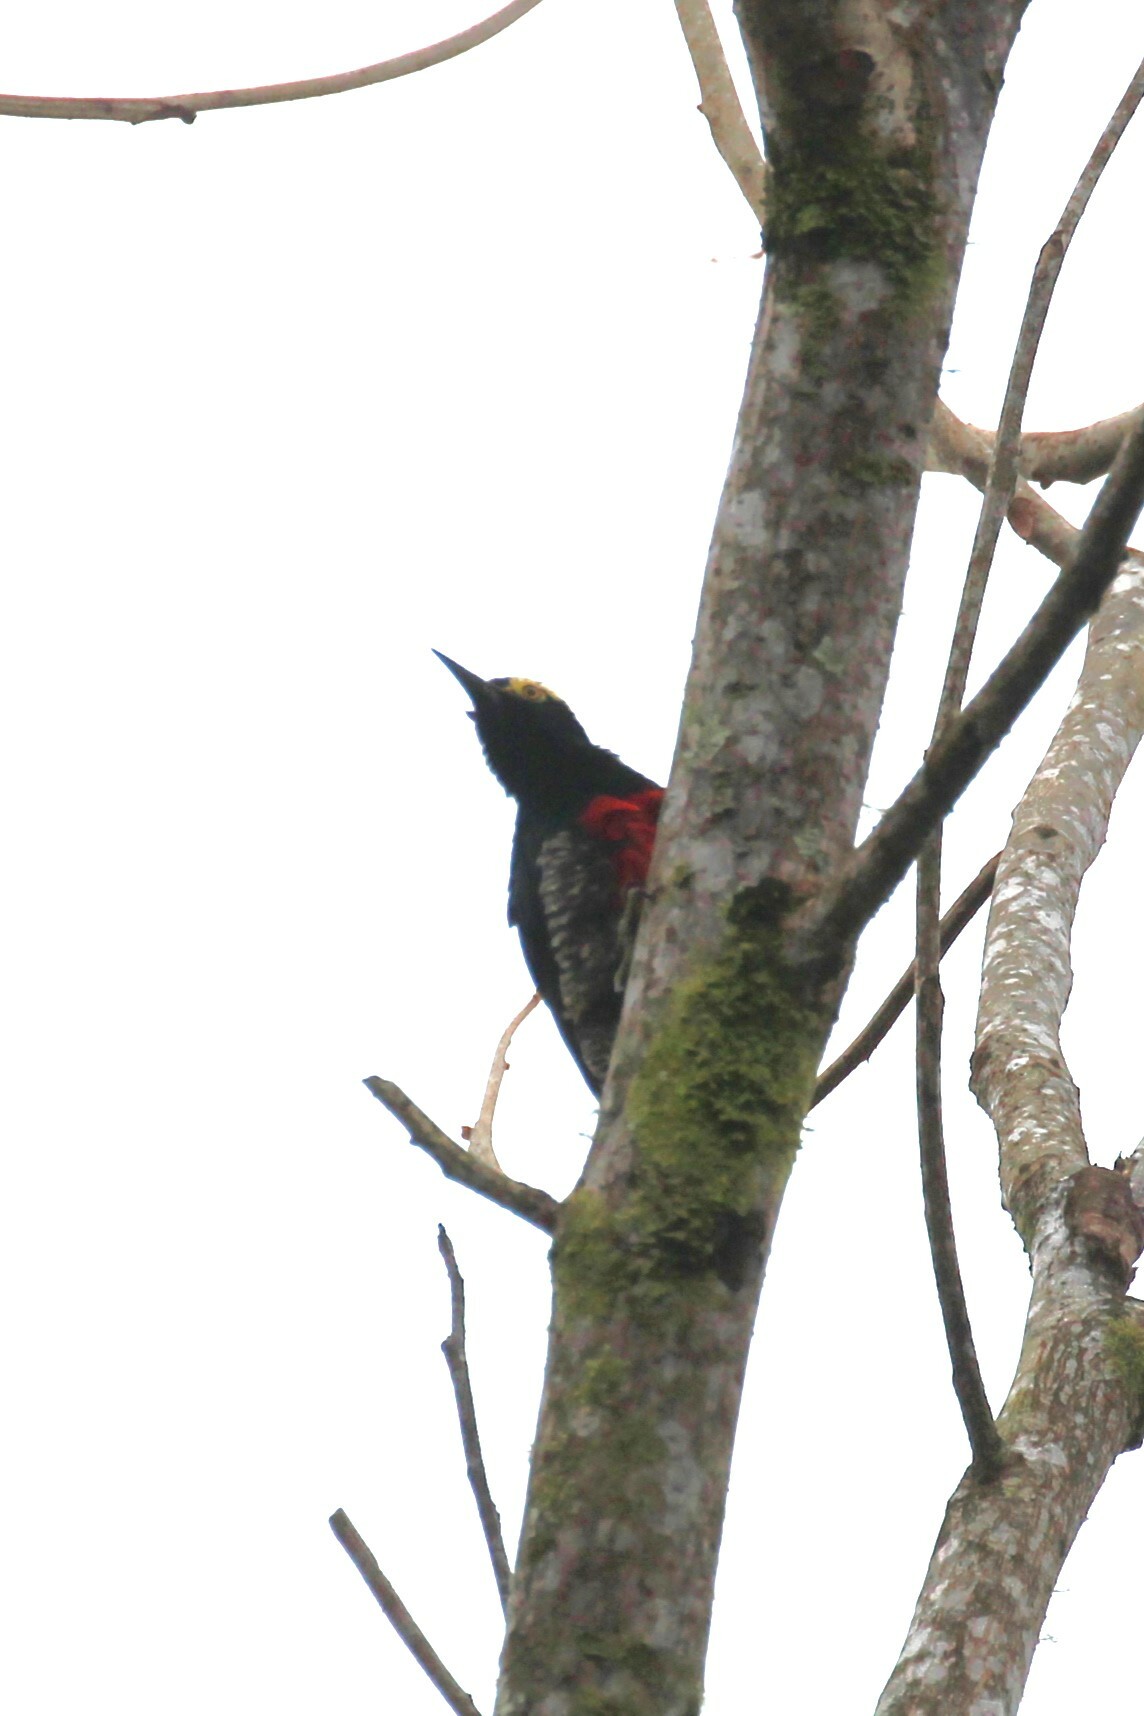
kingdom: Animalia
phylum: Chordata
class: Aves
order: Piciformes
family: Picidae
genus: Melanerpes
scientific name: Melanerpes cruentatus
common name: Yellow-tufted woodpecker
